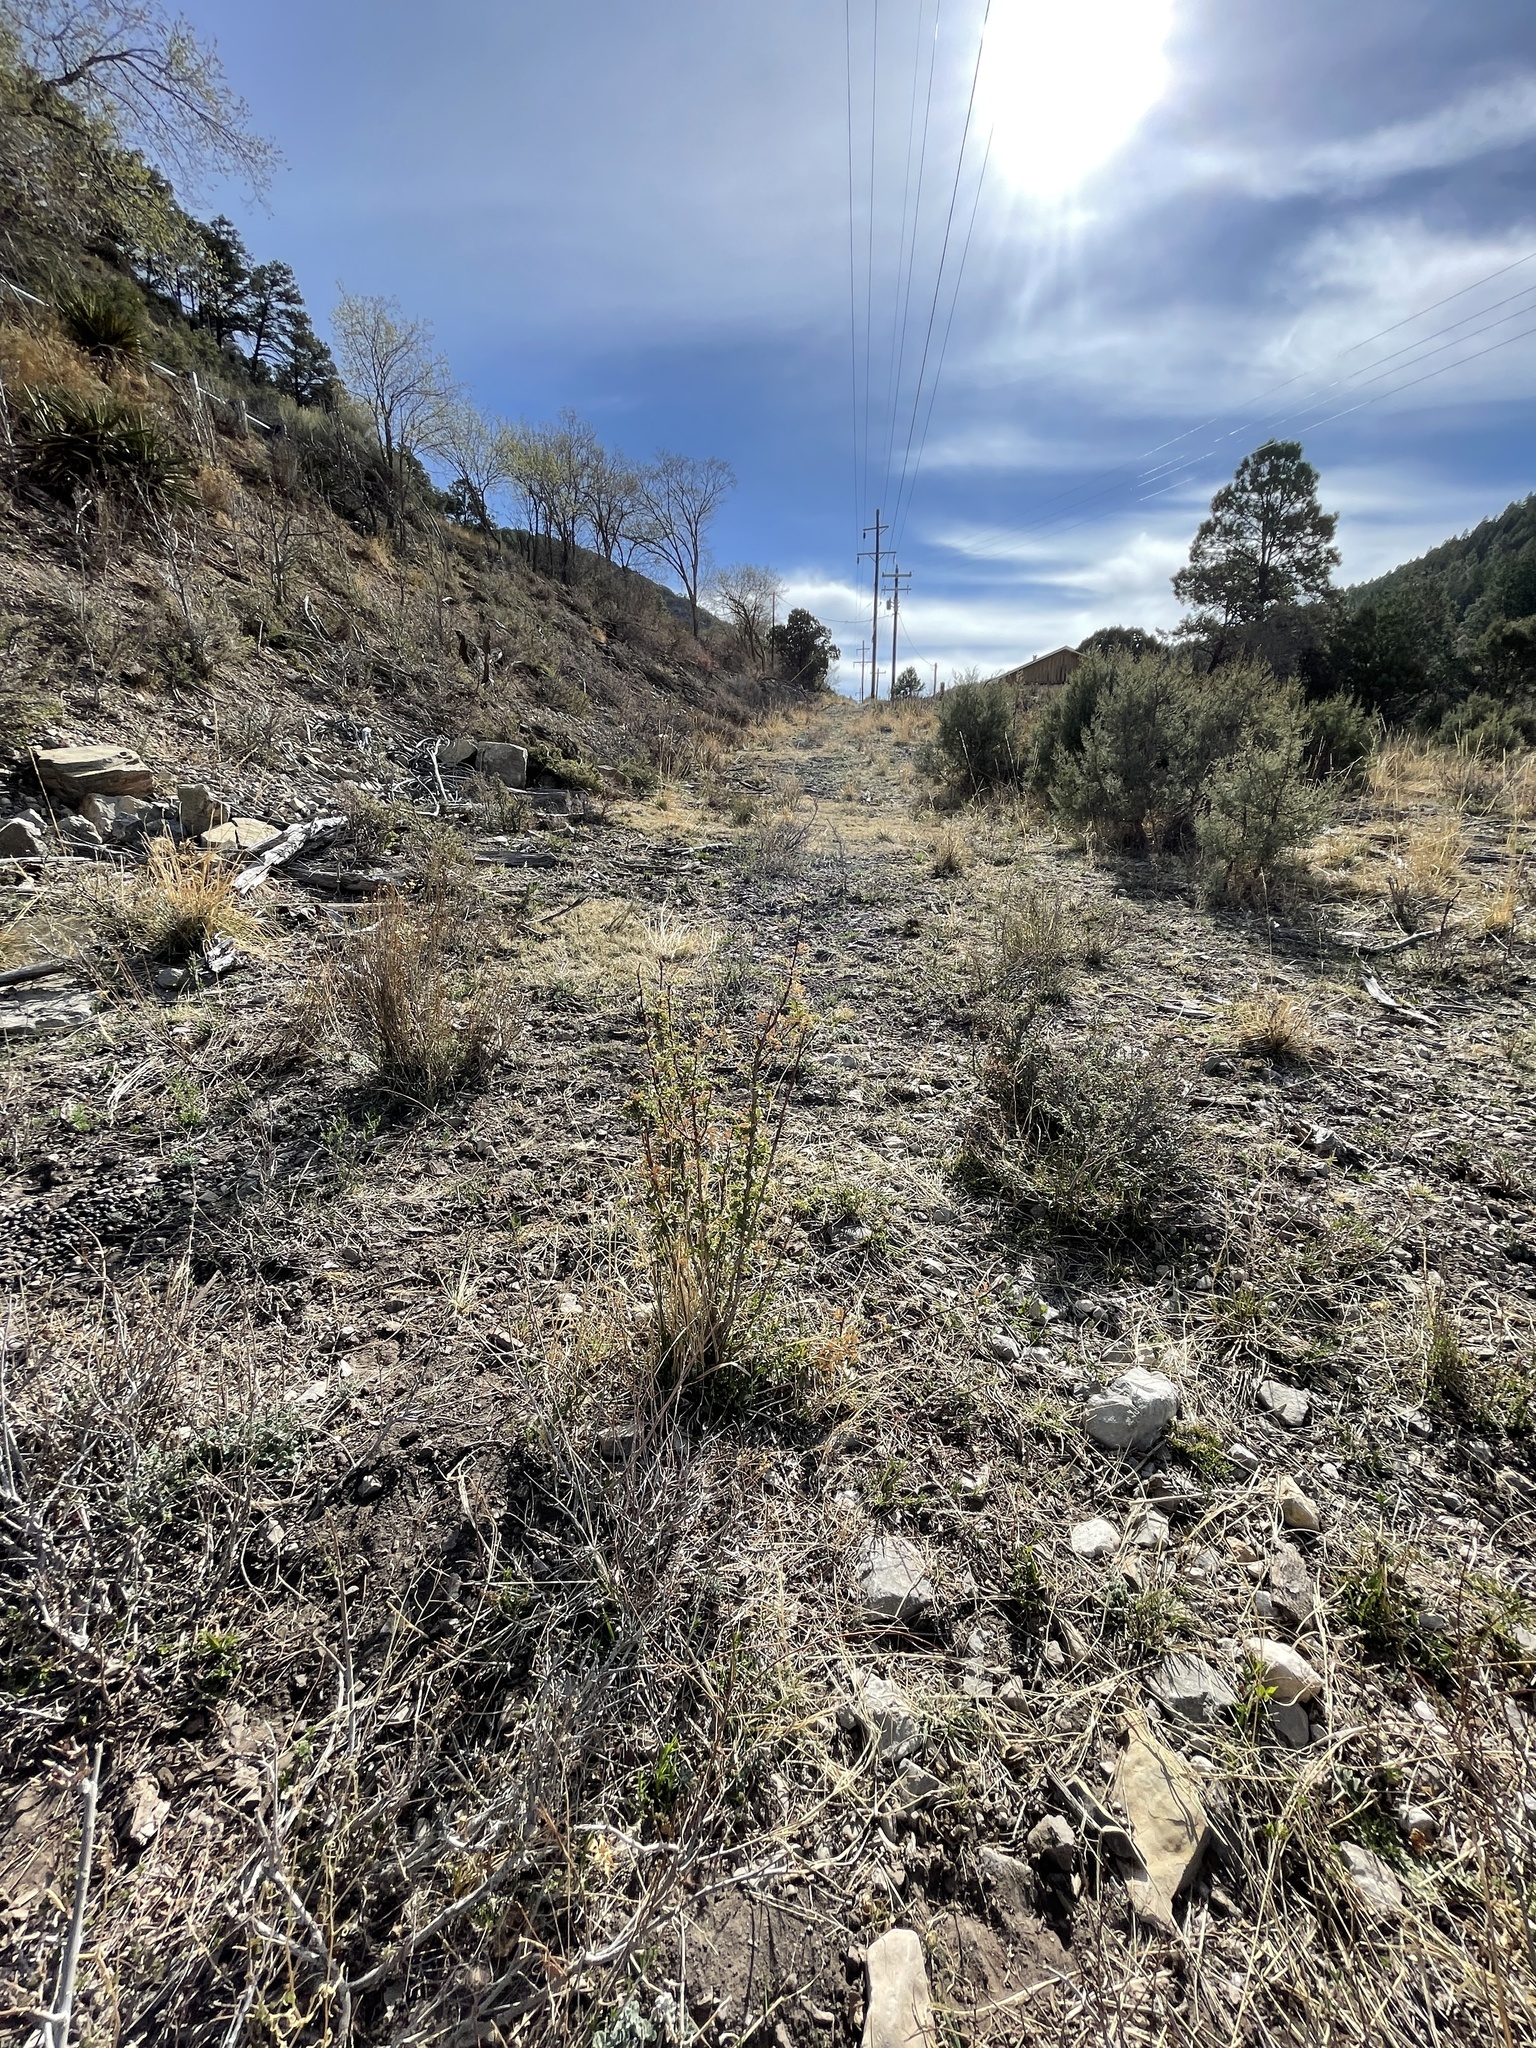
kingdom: Plantae
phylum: Tracheophyta
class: Magnoliopsida
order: Ranunculales
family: Berberidaceae
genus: Alloberberis
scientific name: Alloberberis haematocarpa
